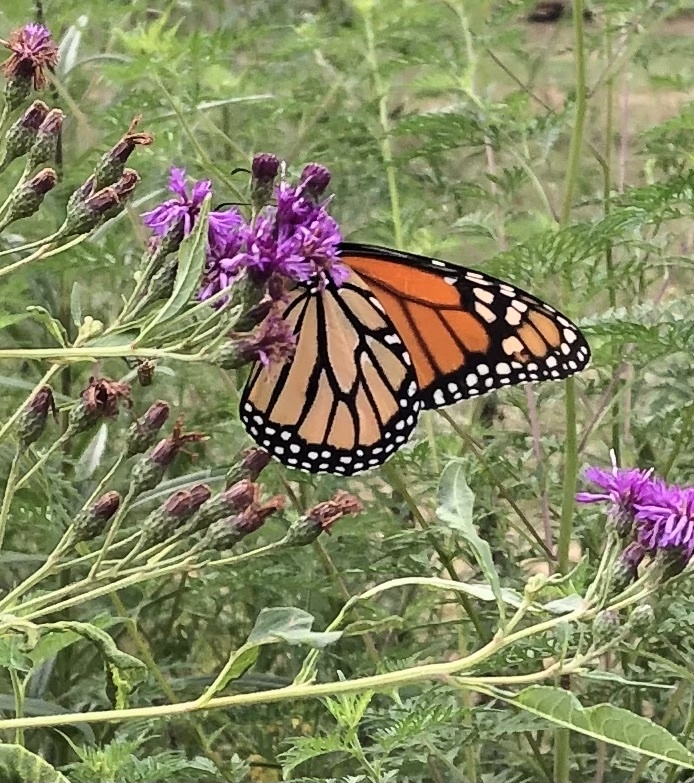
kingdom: Animalia
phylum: Arthropoda
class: Insecta
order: Lepidoptera
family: Nymphalidae
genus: Danaus
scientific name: Danaus plexippus
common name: Monarch
